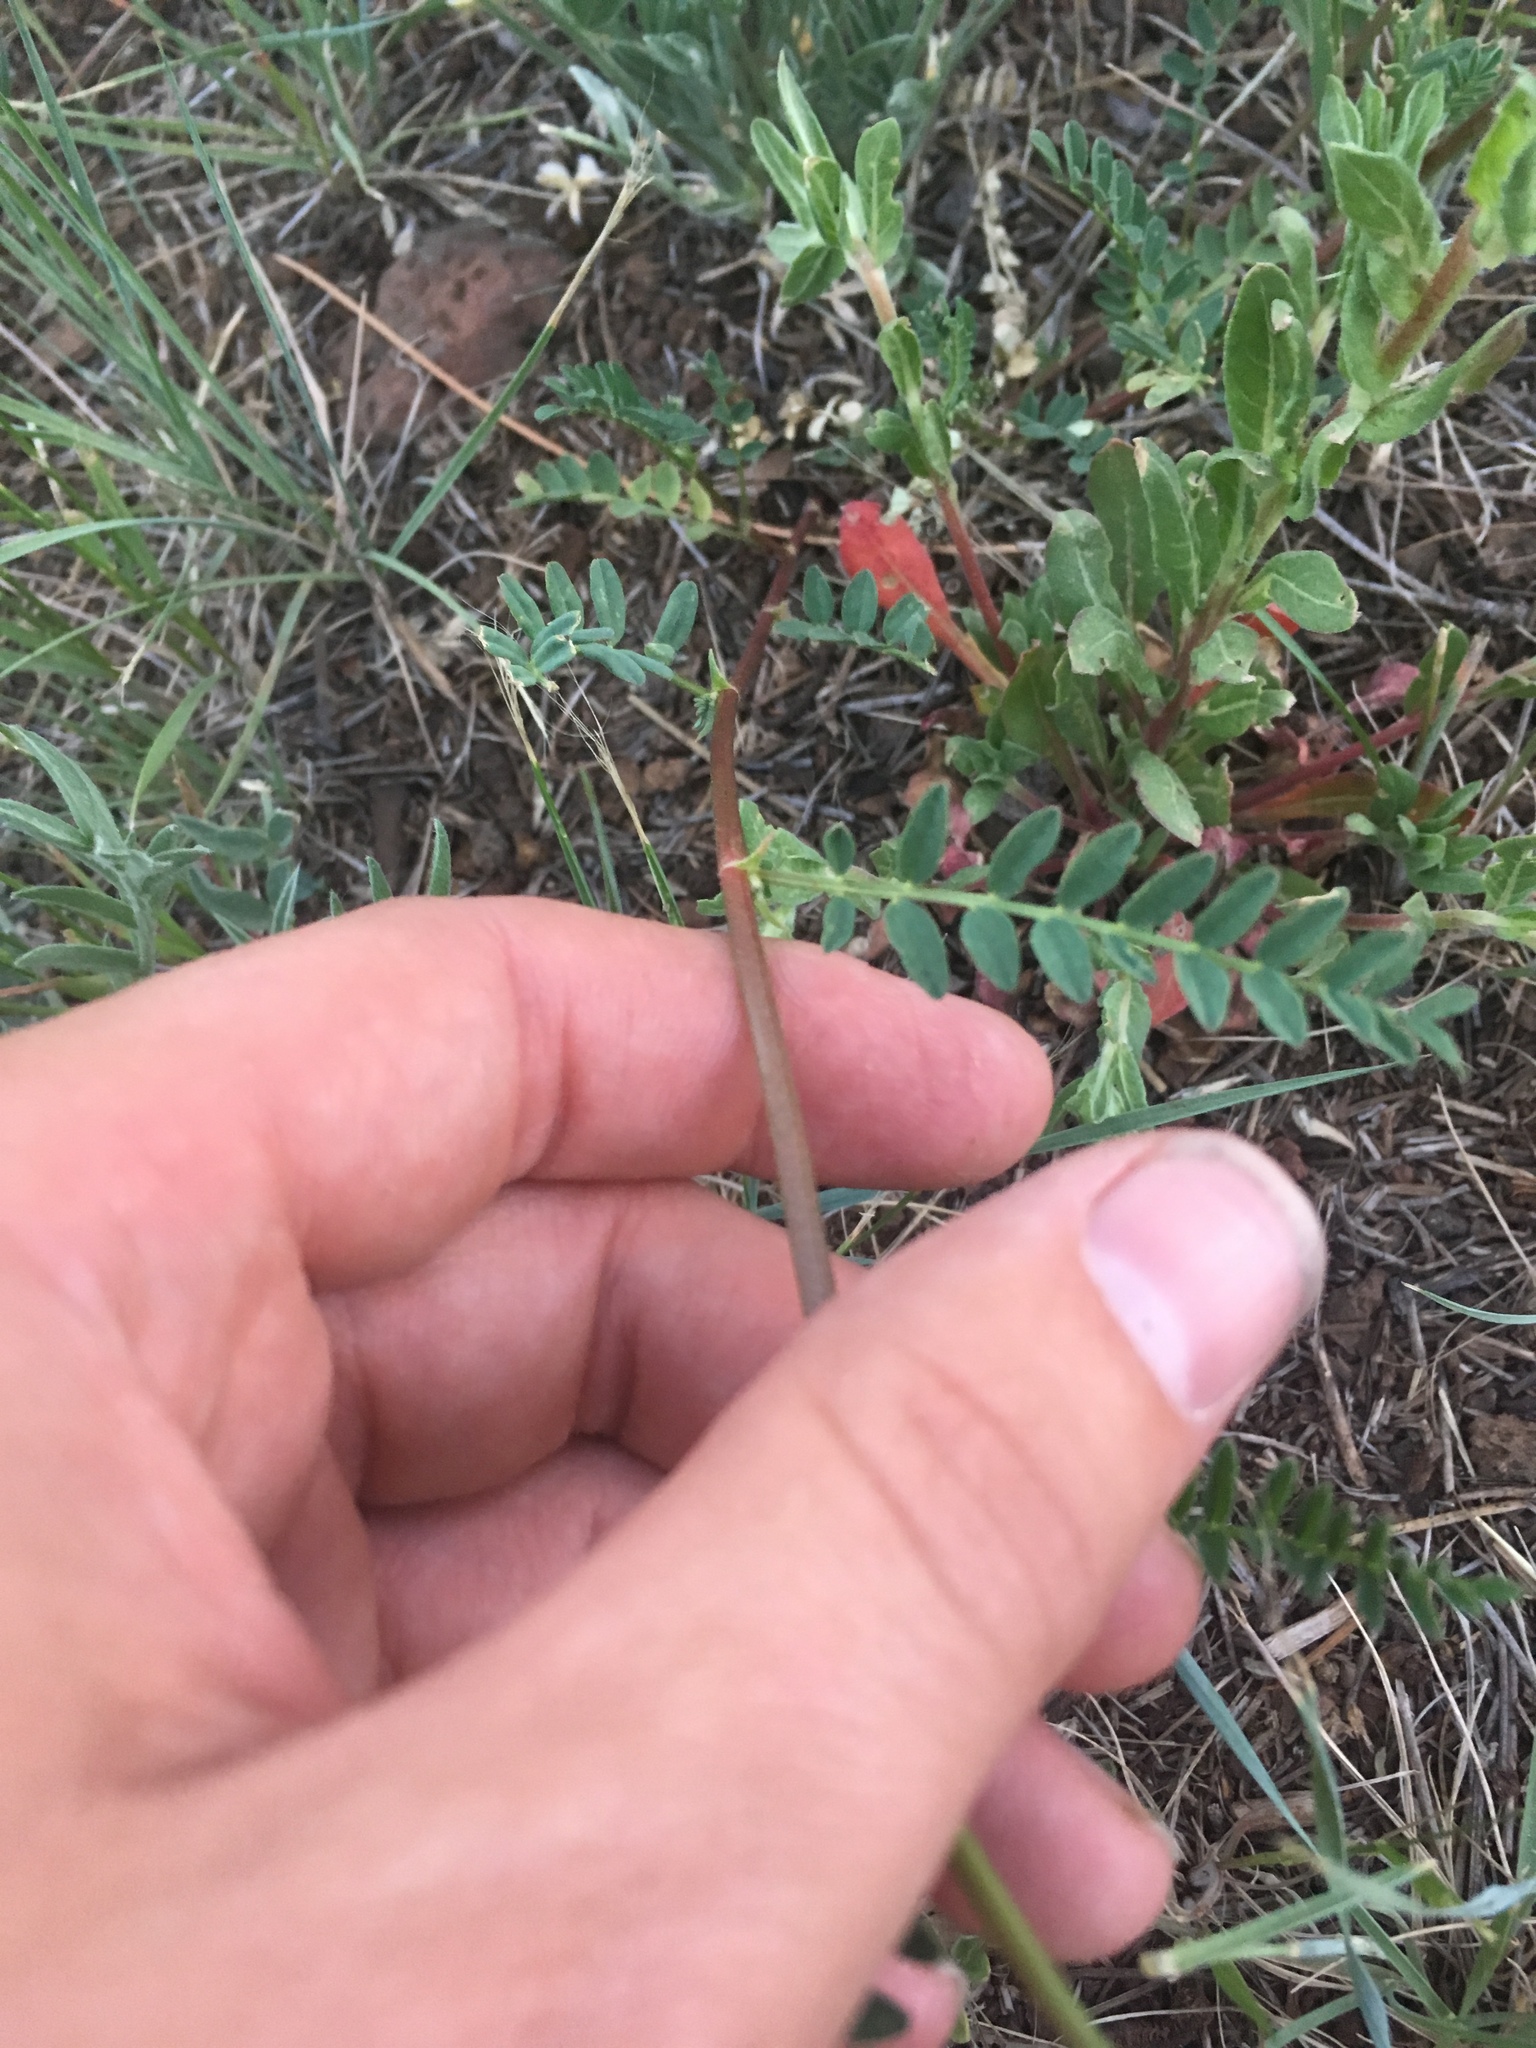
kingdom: Plantae
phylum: Tracheophyta
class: Magnoliopsida
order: Fabales
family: Fabaceae
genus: Astragalus
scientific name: Astragalus rusbyi
